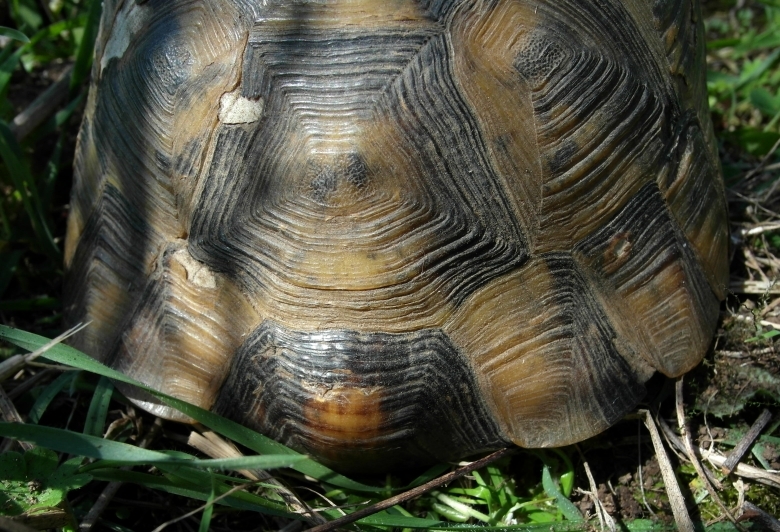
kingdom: Animalia
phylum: Chordata
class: Testudines
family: Testudinidae
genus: Testudo
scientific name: Testudo graeca
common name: Common tortoise
